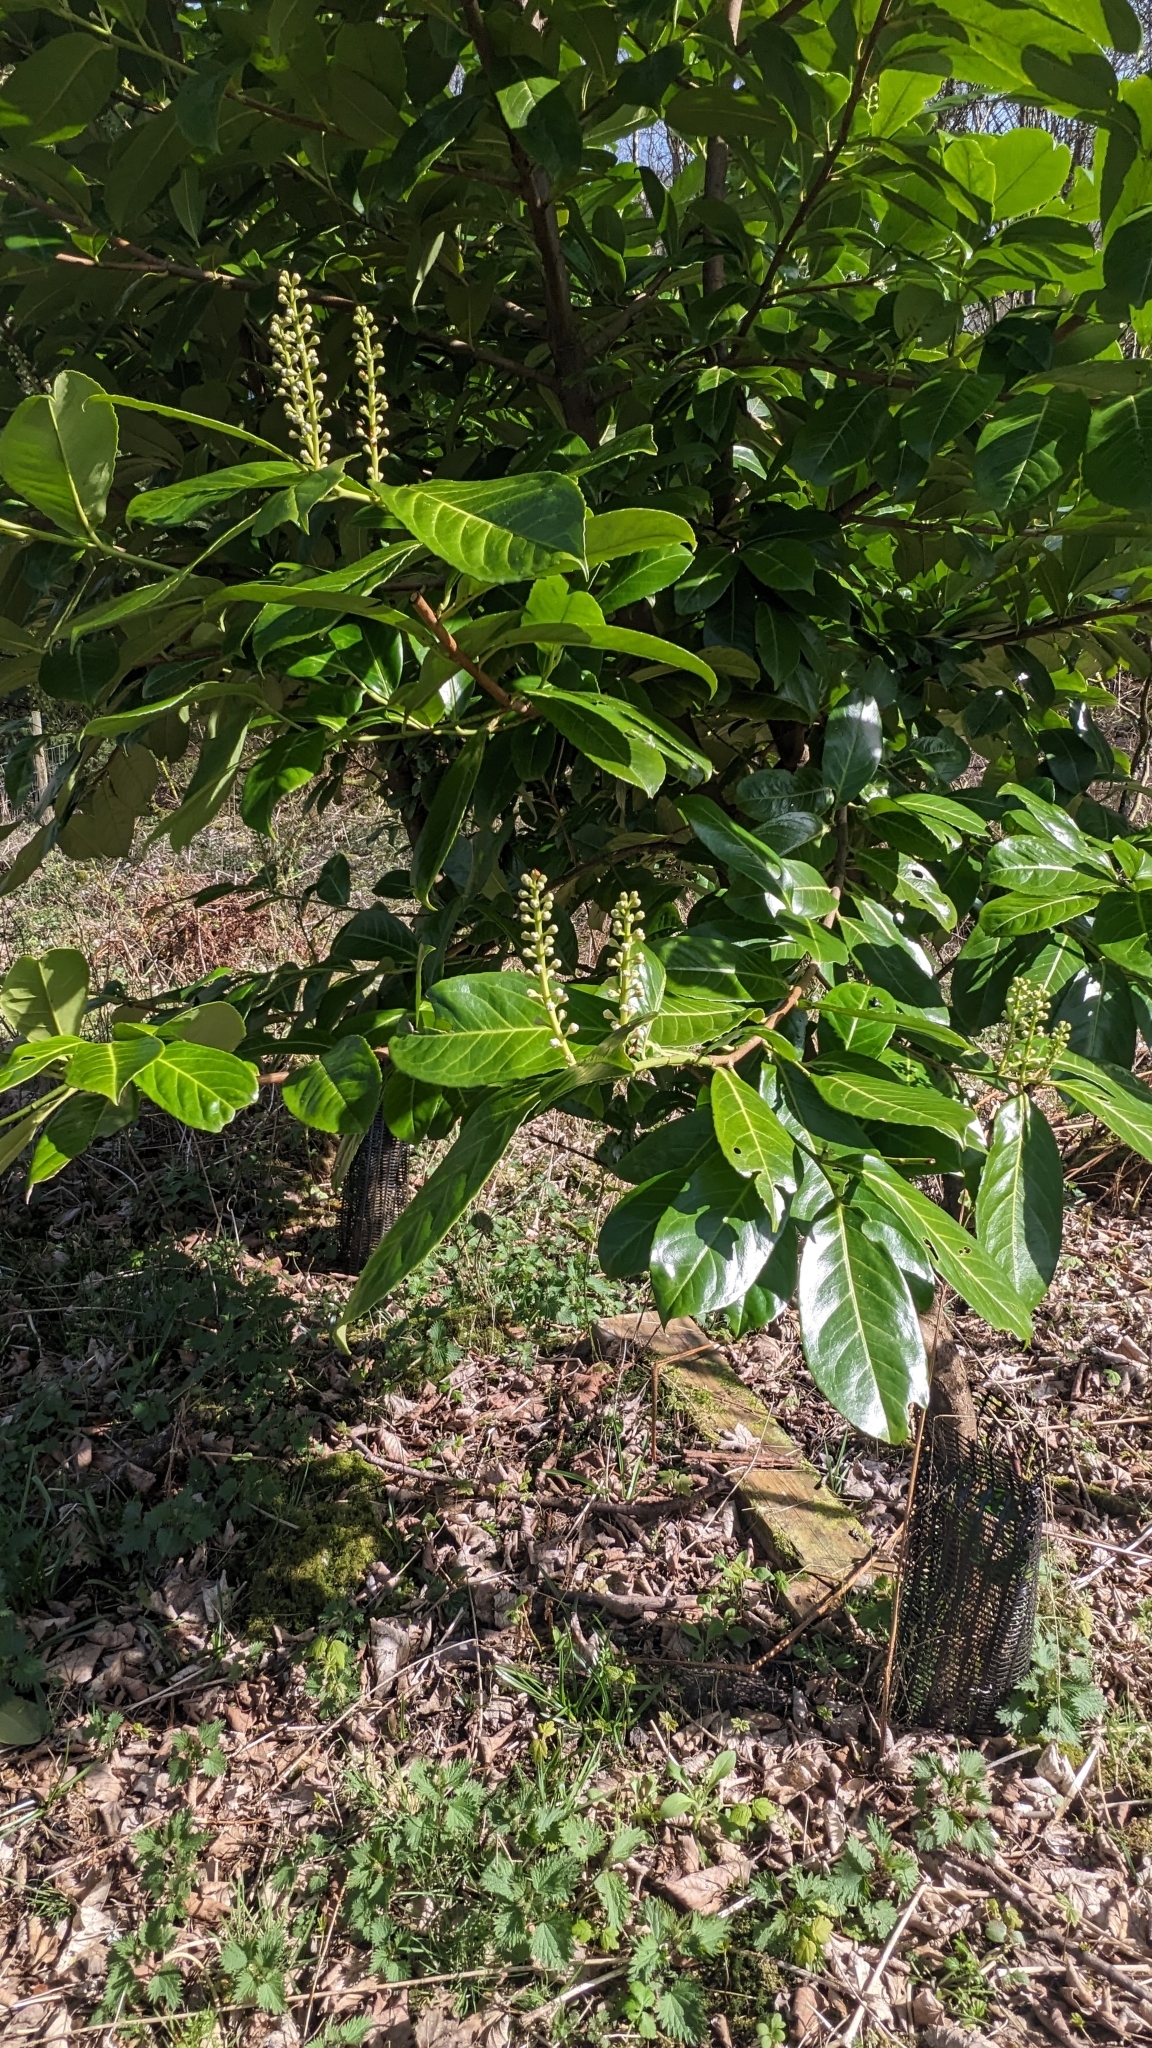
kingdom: Plantae
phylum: Tracheophyta
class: Magnoliopsida
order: Rosales
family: Rosaceae
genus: Prunus
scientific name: Prunus laurocerasus
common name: Cherry laurel
